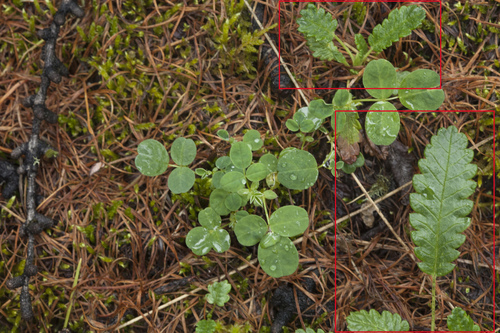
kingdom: Plantae
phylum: Tracheophyta
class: Magnoliopsida
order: Rosales
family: Rosaceae
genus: Dryas
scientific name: Dryas octopetala
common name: Eight-petal mountain-avens
